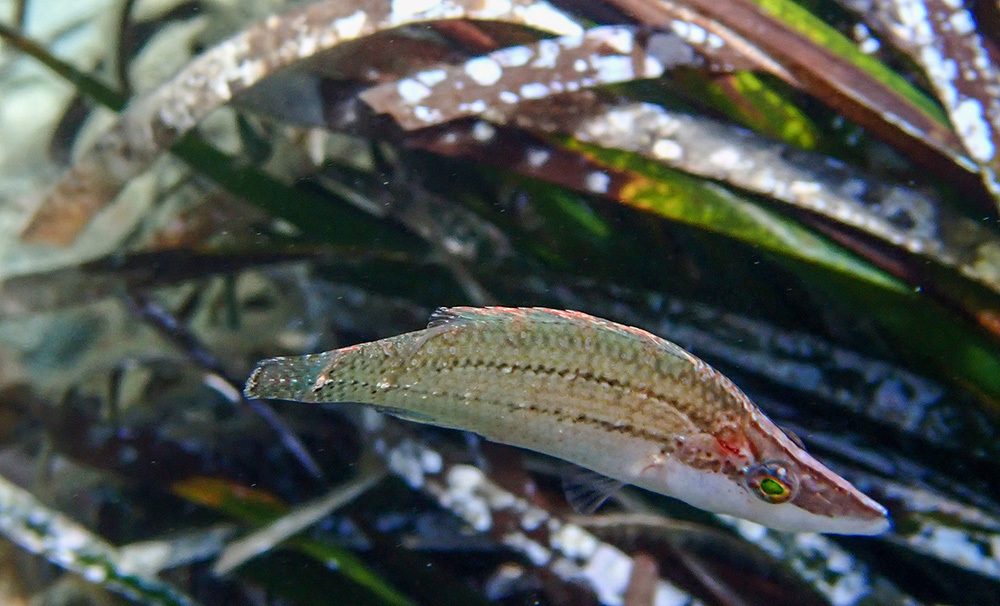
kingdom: Animalia
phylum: Chordata
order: Perciformes
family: Labridae
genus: Symphodus
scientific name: Symphodus rostratus
